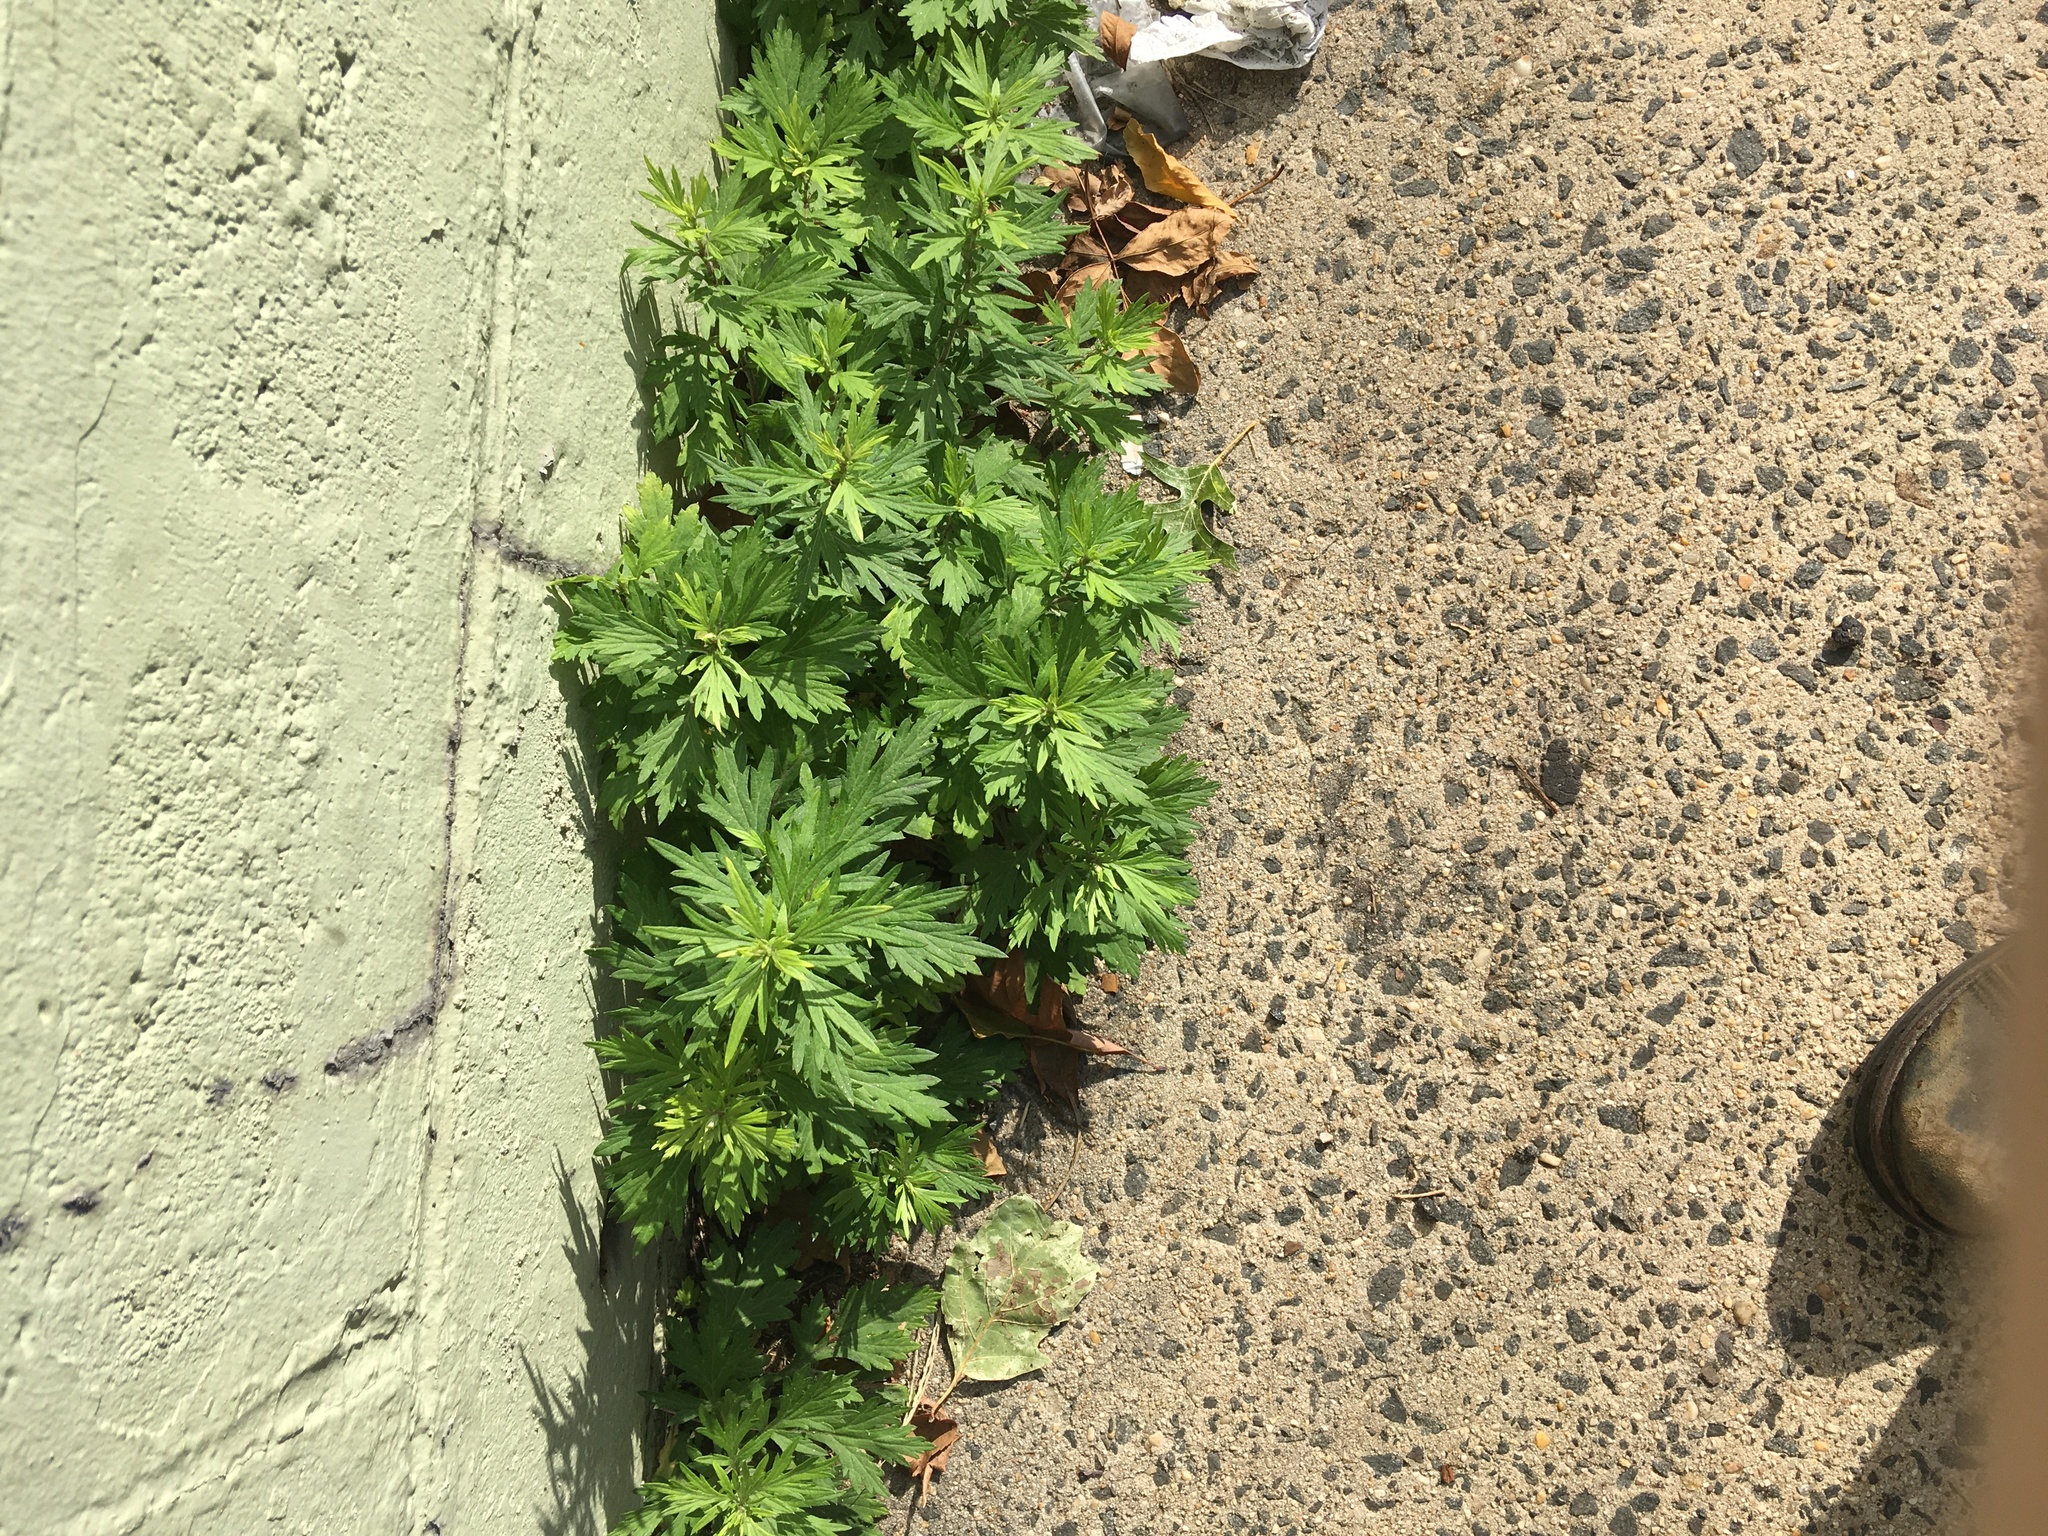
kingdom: Plantae
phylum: Tracheophyta
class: Magnoliopsida
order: Asterales
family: Asteraceae
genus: Artemisia
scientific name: Artemisia vulgaris
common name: Mugwort
